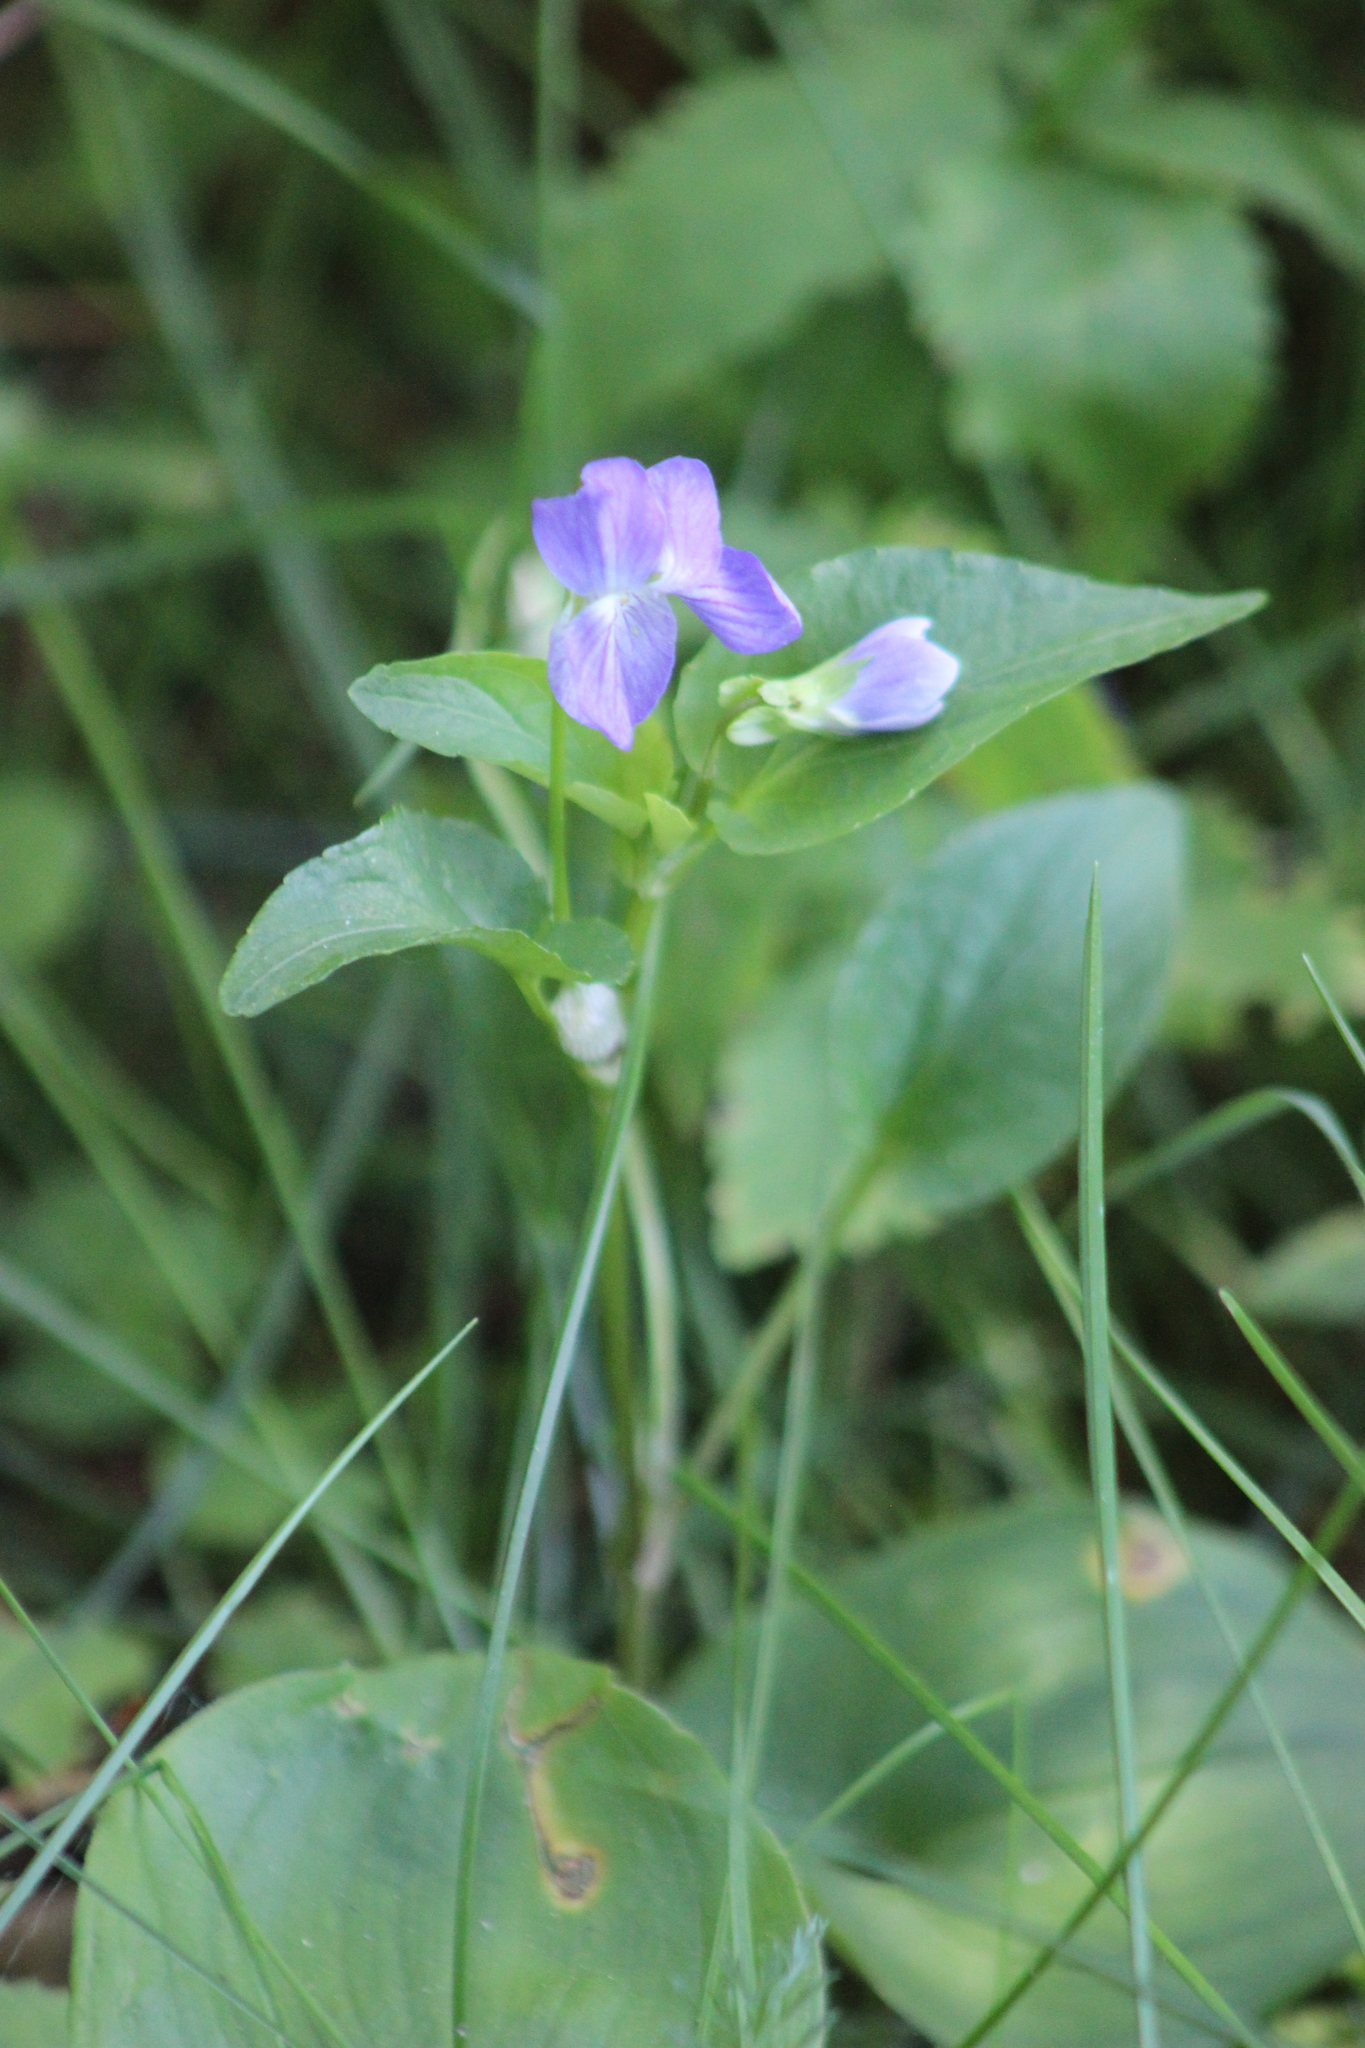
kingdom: Plantae
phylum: Tracheophyta
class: Magnoliopsida
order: Malpighiales
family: Violaceae
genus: Viola
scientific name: Viola
